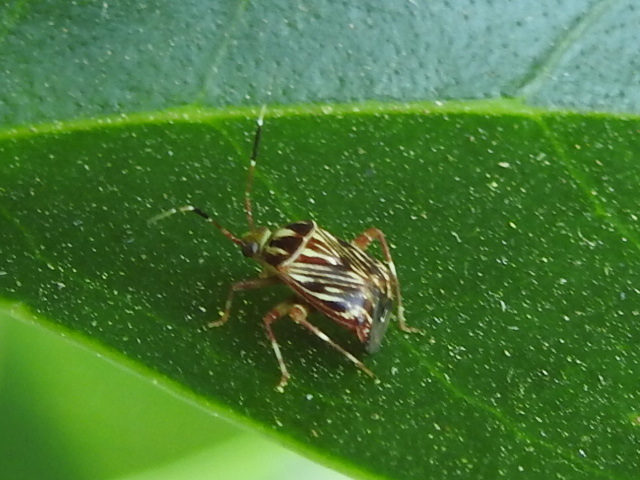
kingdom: Animalia
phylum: Arthropoda
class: Insecta
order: Hemiptera
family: Miridae
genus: Taedia
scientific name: Taedia virgulata
